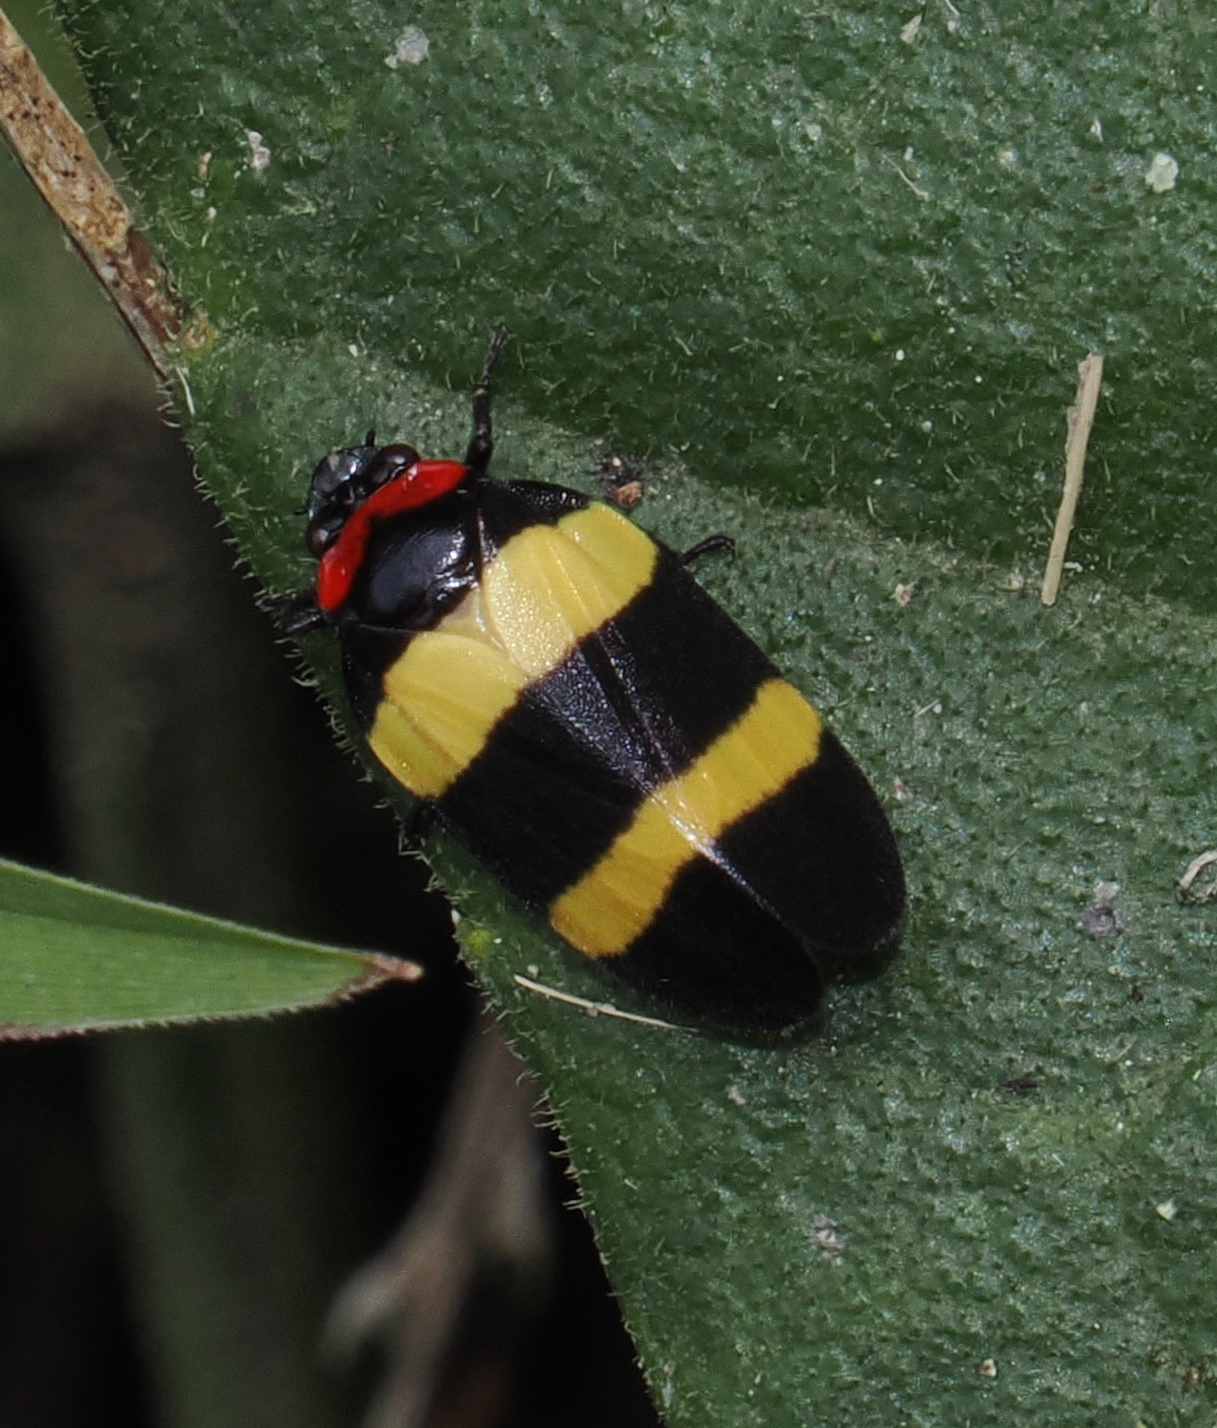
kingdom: Animalia
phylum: Arthropoda
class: Insecta
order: Hemiptera
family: Cercopidae
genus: Sphenorhina
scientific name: Sphenorhina nigricephala
